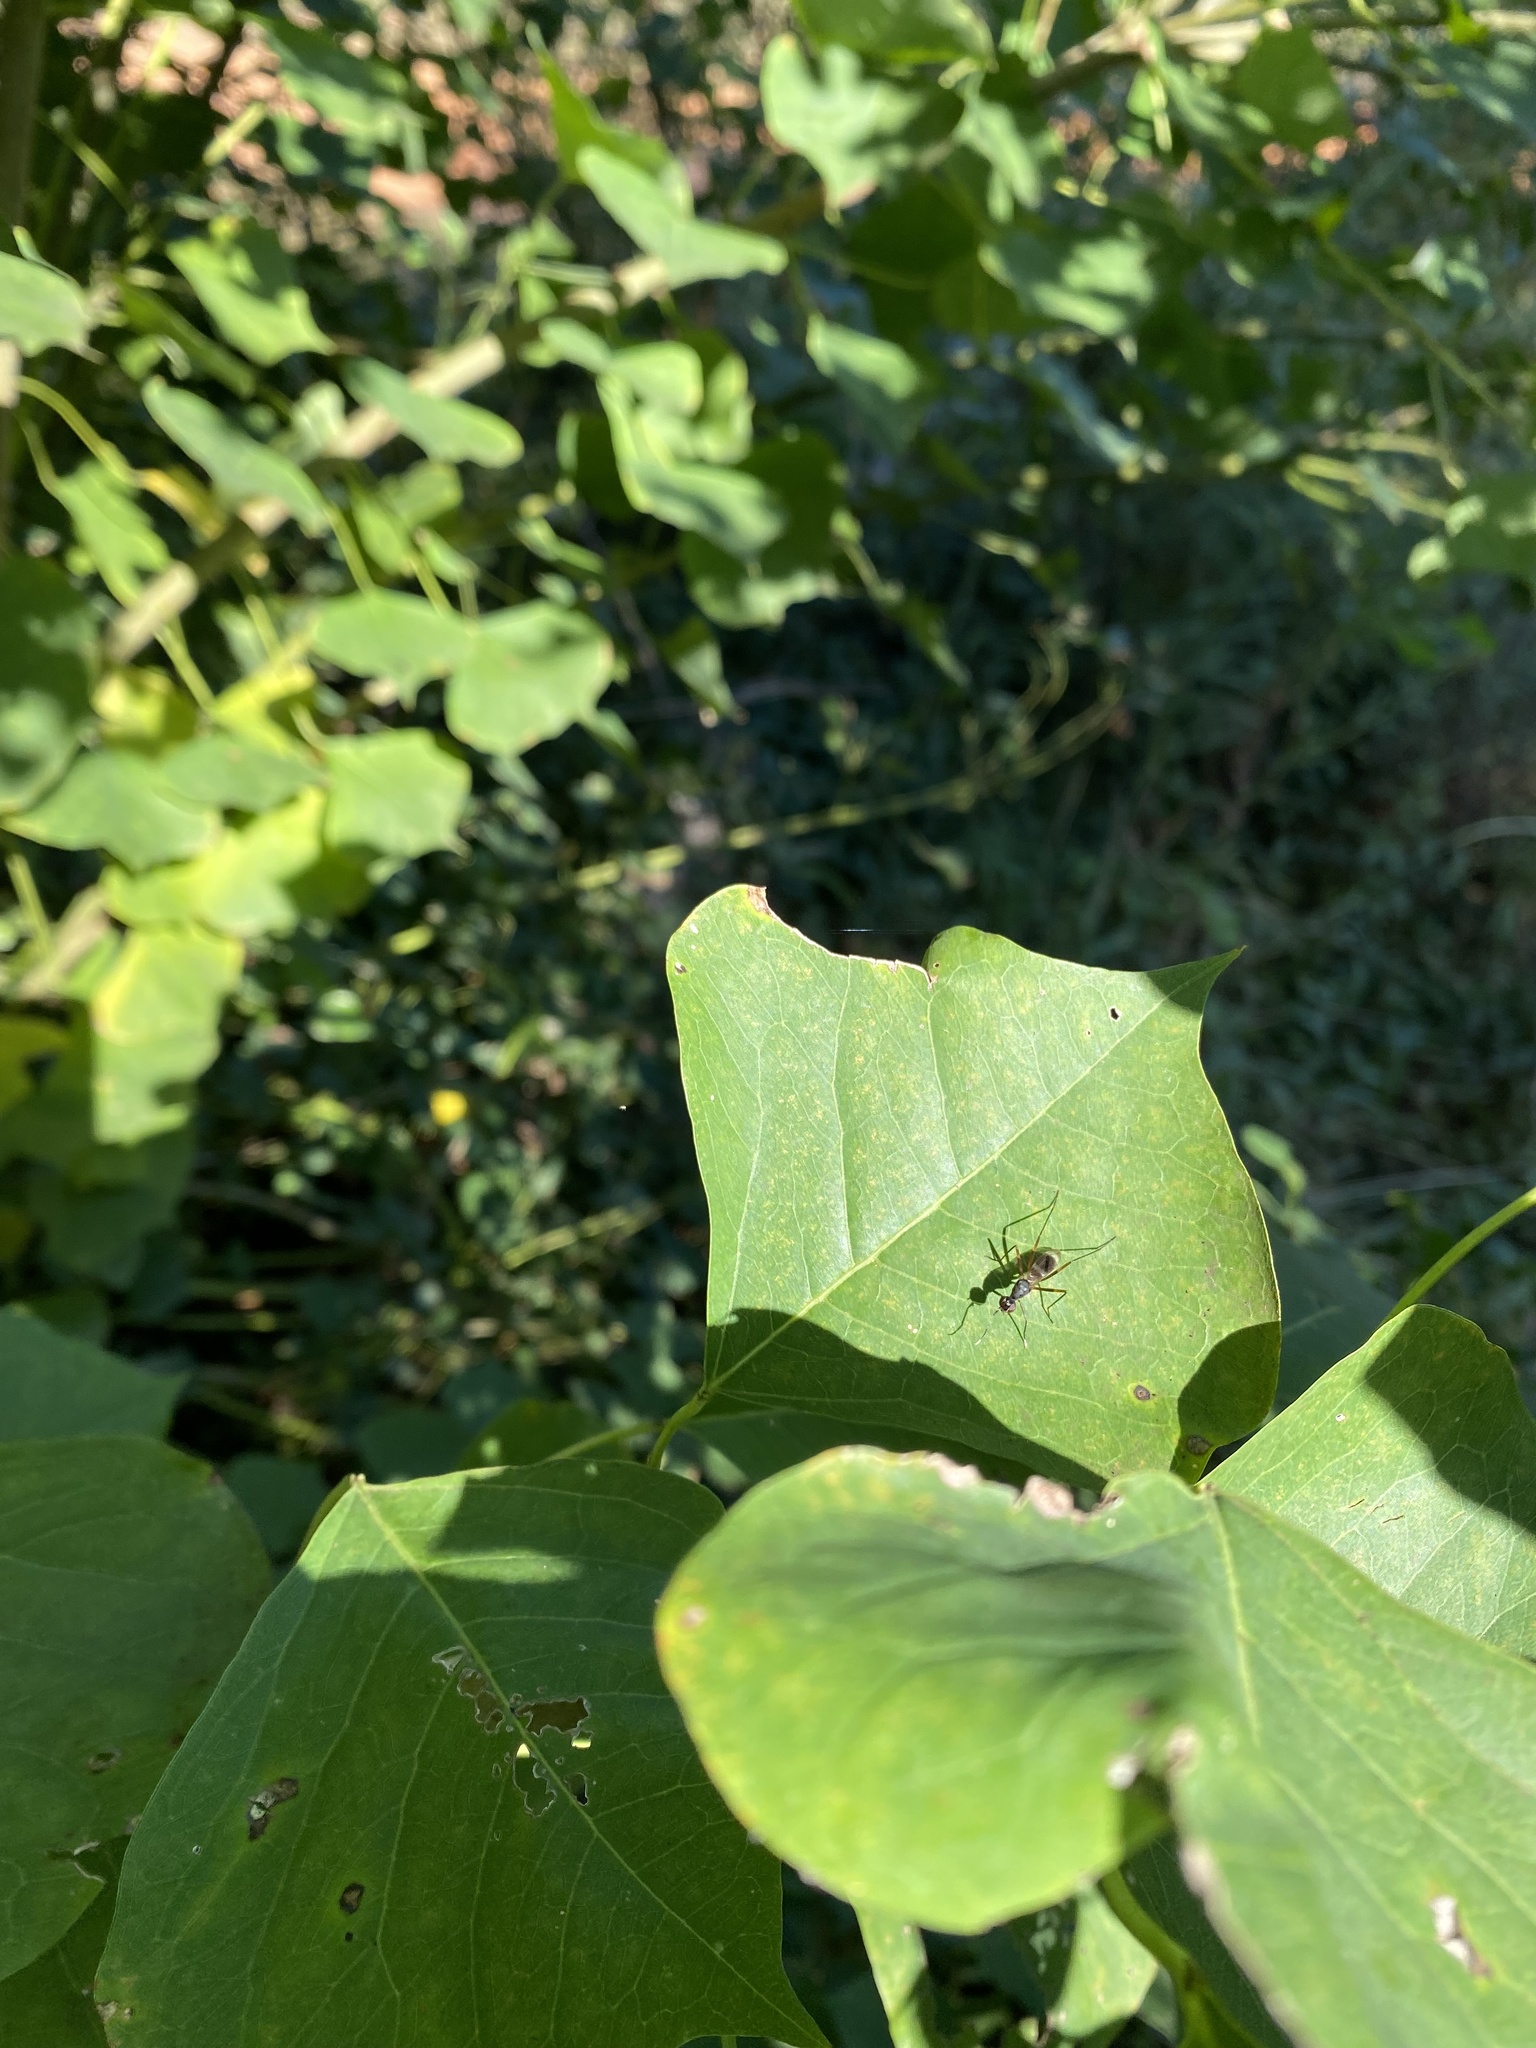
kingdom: Animalia
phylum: Arthropoda
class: Insecta
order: Diptera
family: Micropezidae
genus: Taeniaptera
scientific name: Taeniaptera trivittata
